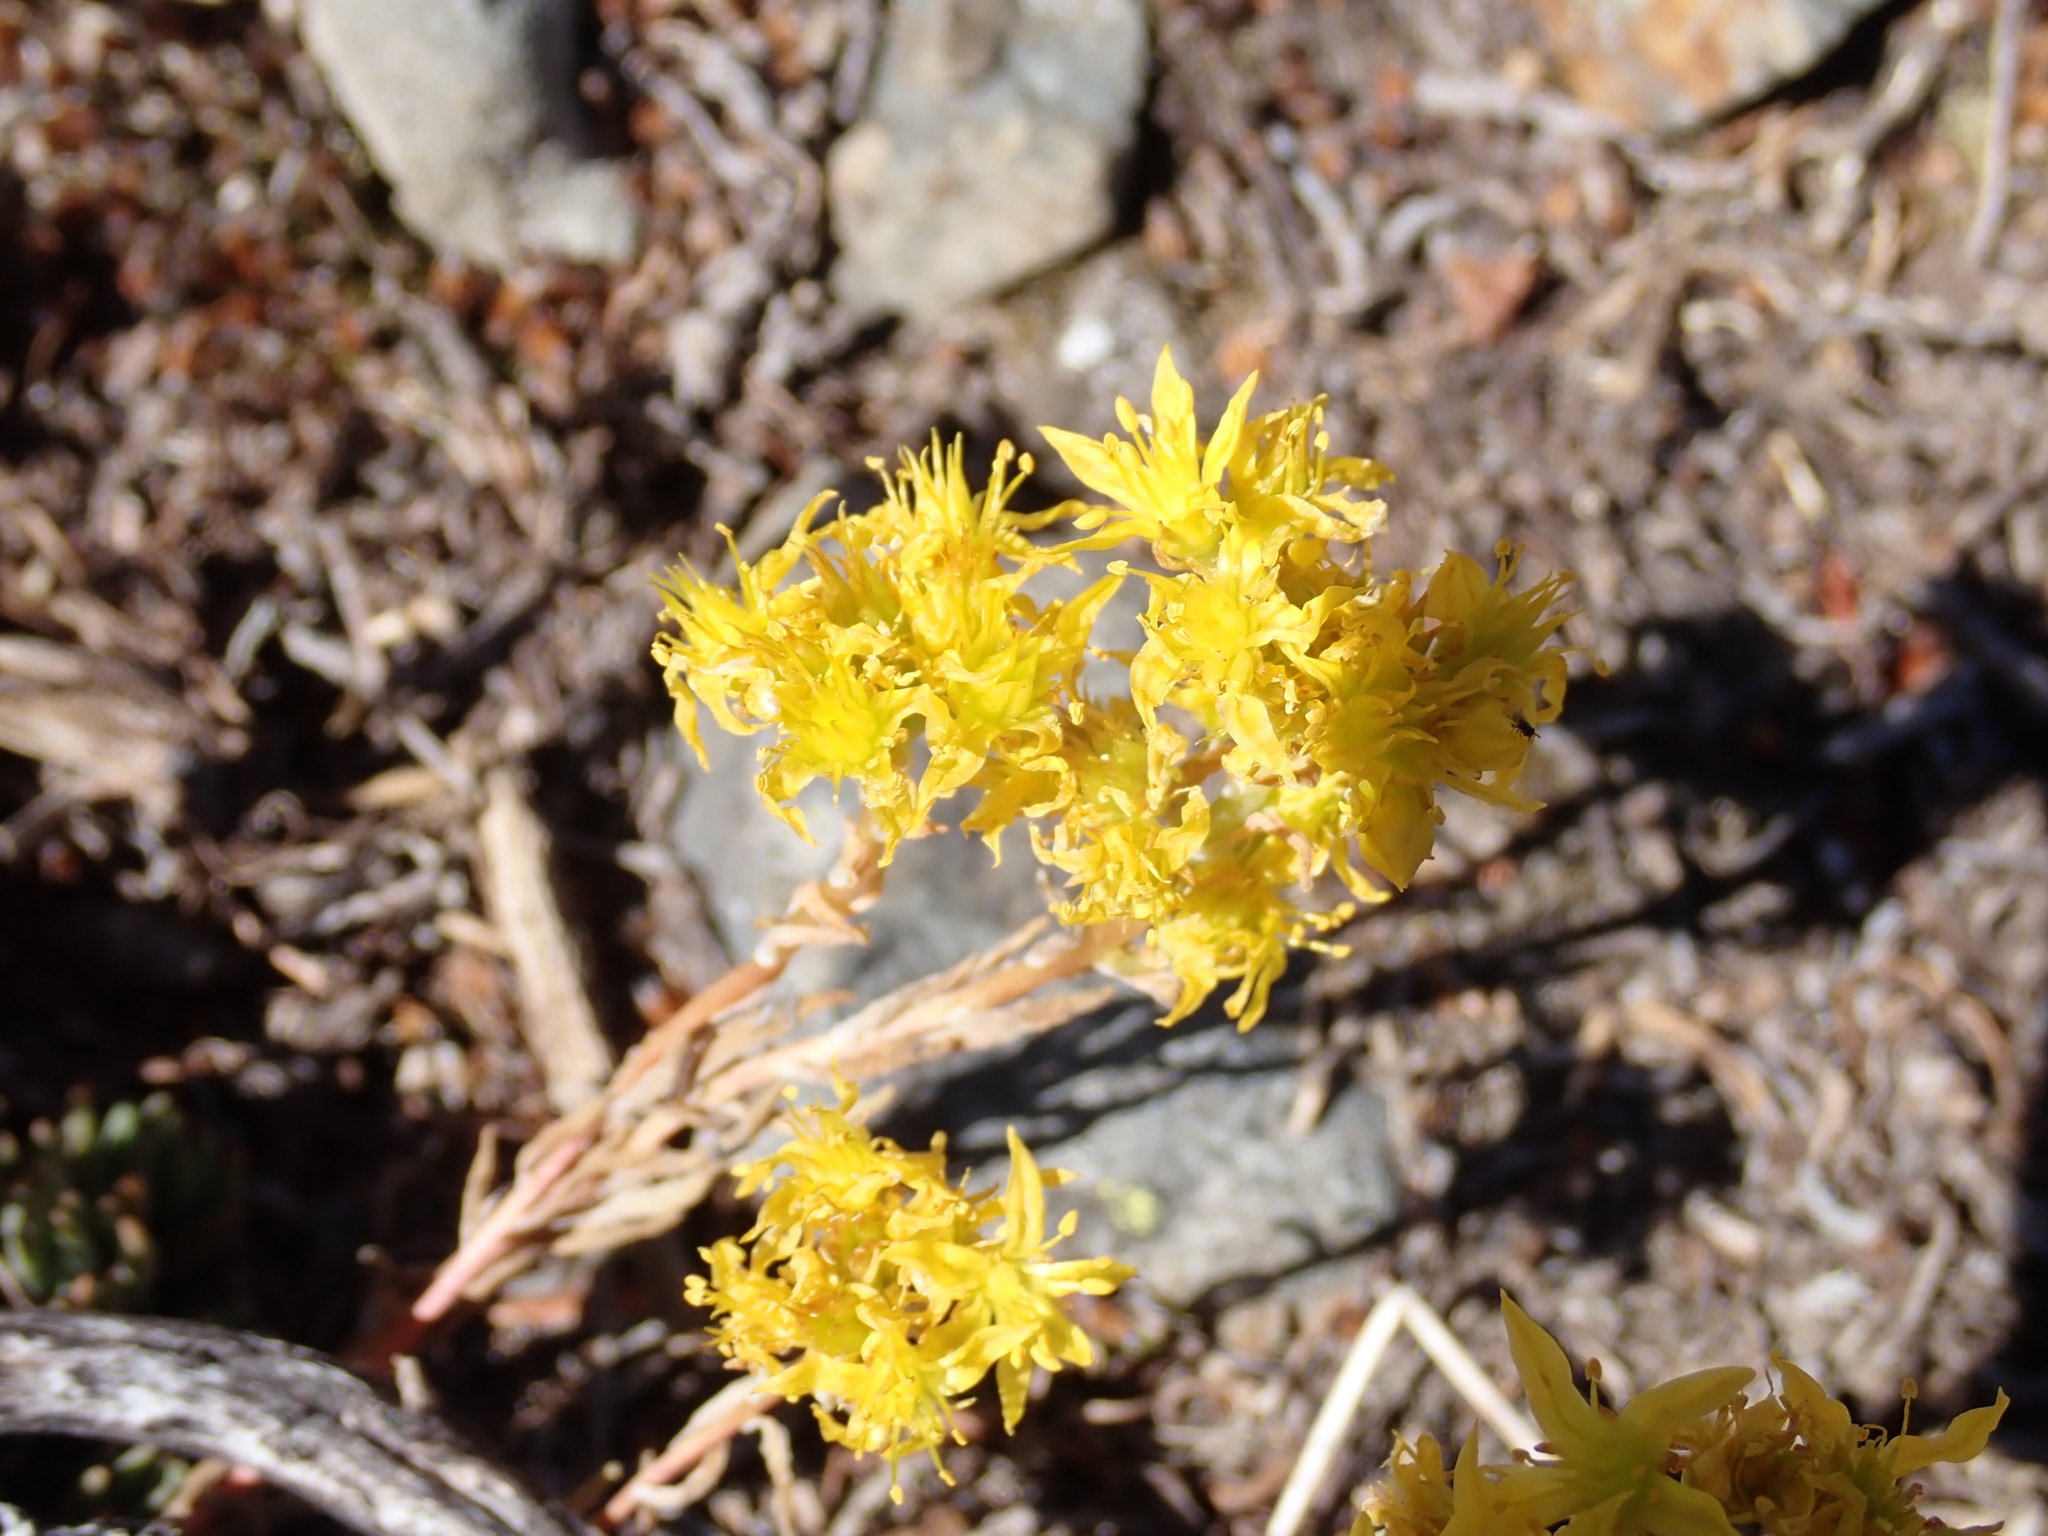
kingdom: Plantae
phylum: Tracheophyta
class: Magnoliopsida
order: Saxifragales
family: Crassulaceae
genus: Sedum
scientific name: Sedum lanceolatum
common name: Common stonecrop
